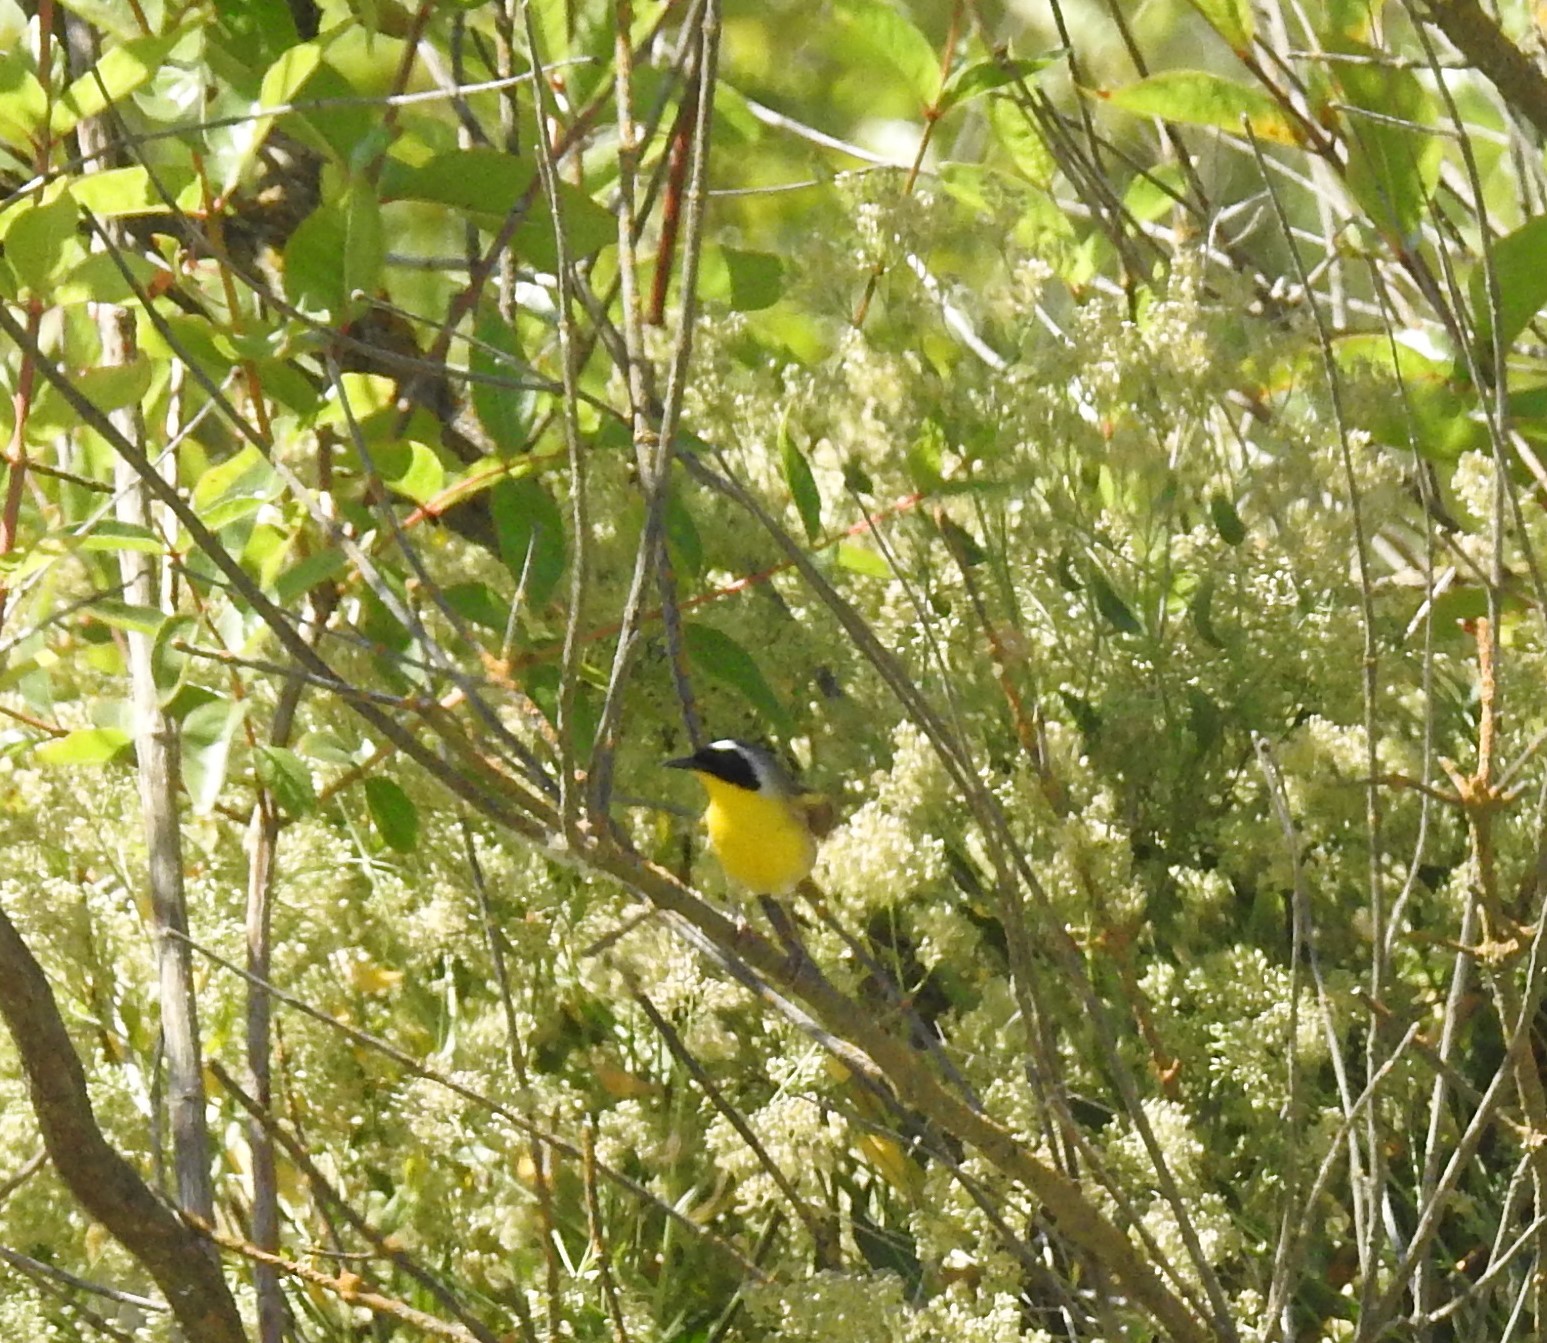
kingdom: Animalia
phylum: Chordata
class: Aves
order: Passeriformes
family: Parulidae
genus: Geothlypis
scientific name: Geothlypis trichas
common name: Common yellowthroat
